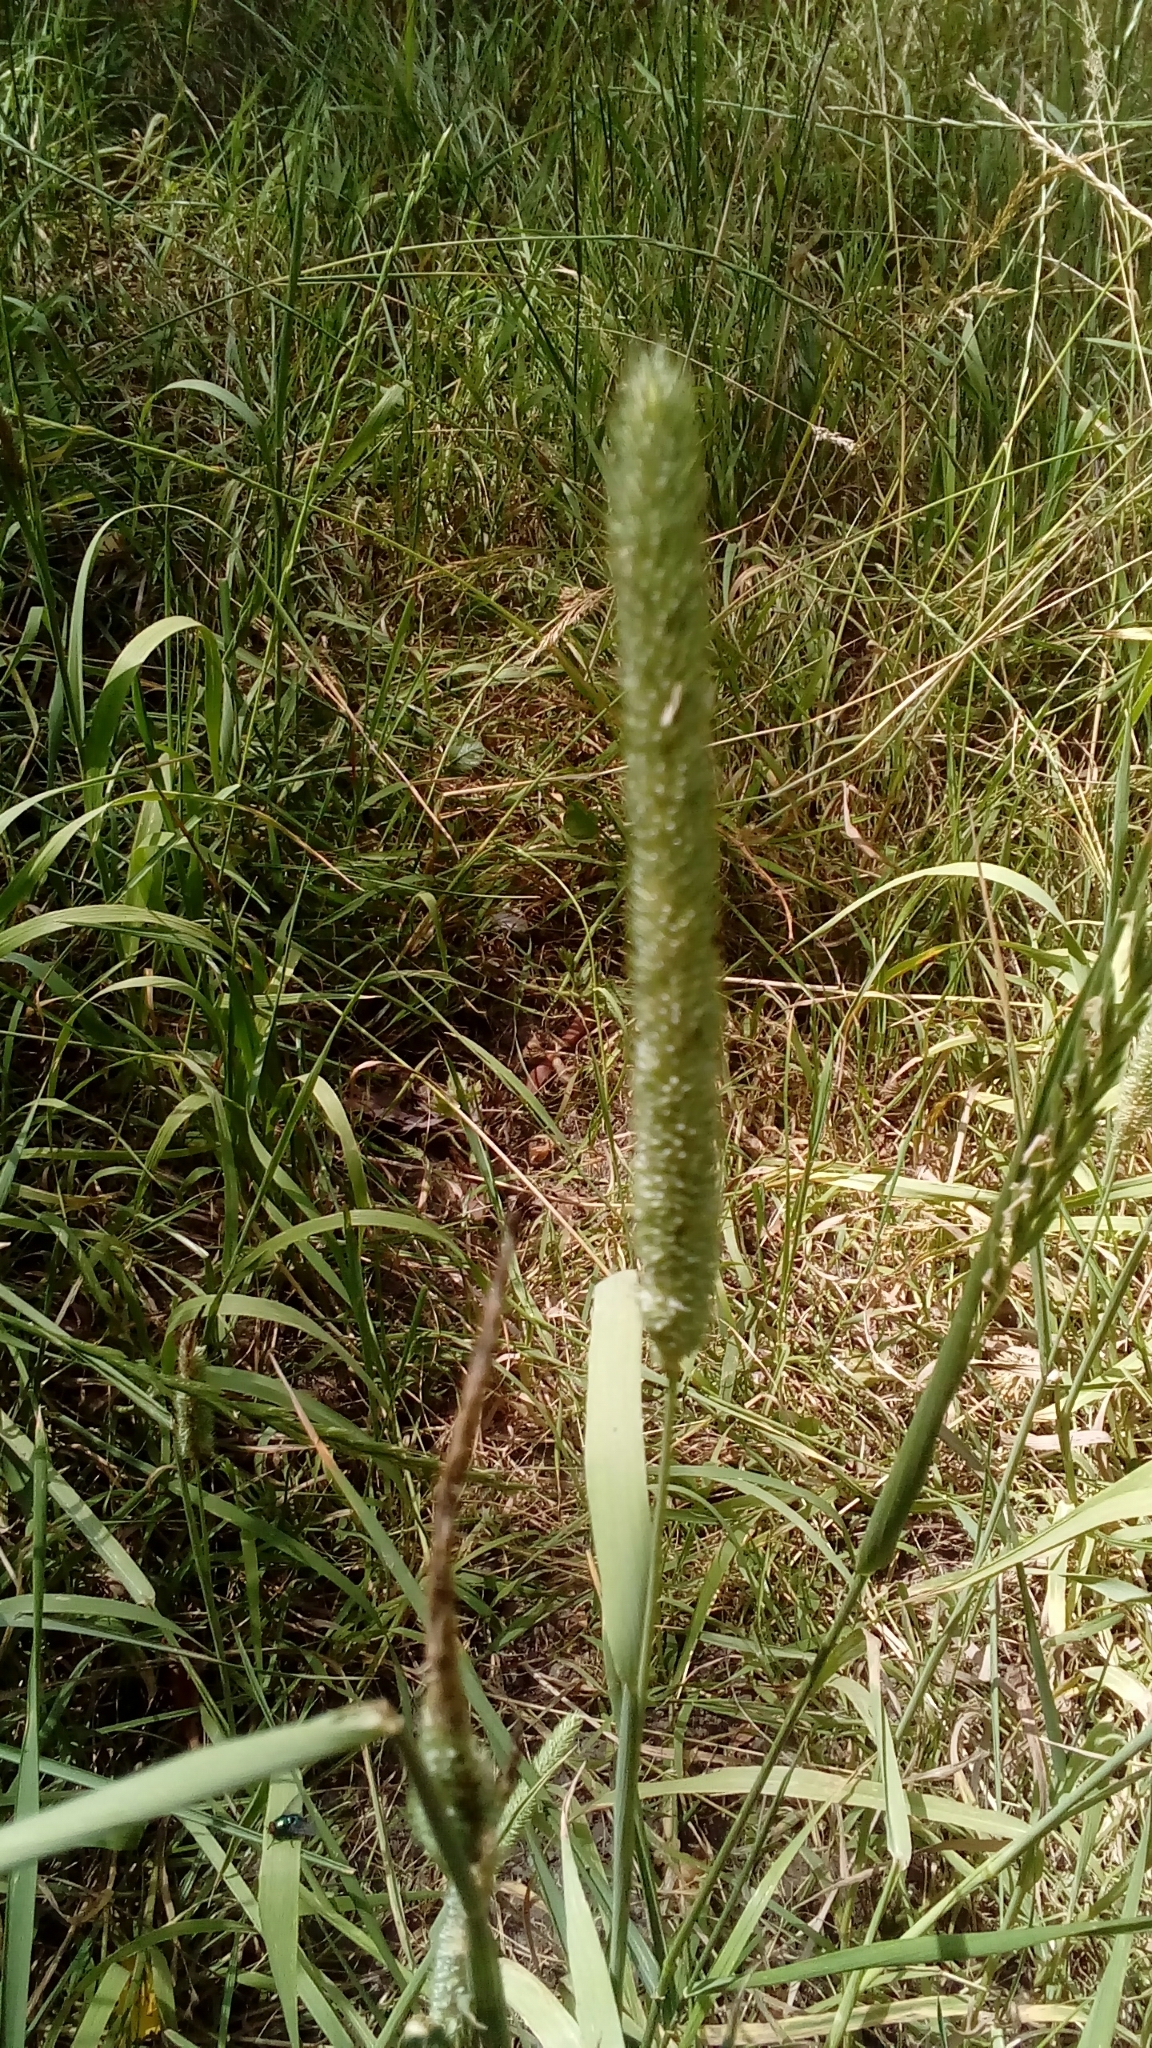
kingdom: Plantae
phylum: Tracheophyta
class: Liliopsida
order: Poales
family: Poaceae
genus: Phleum
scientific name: Phleum pratense
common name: Timothy grass
